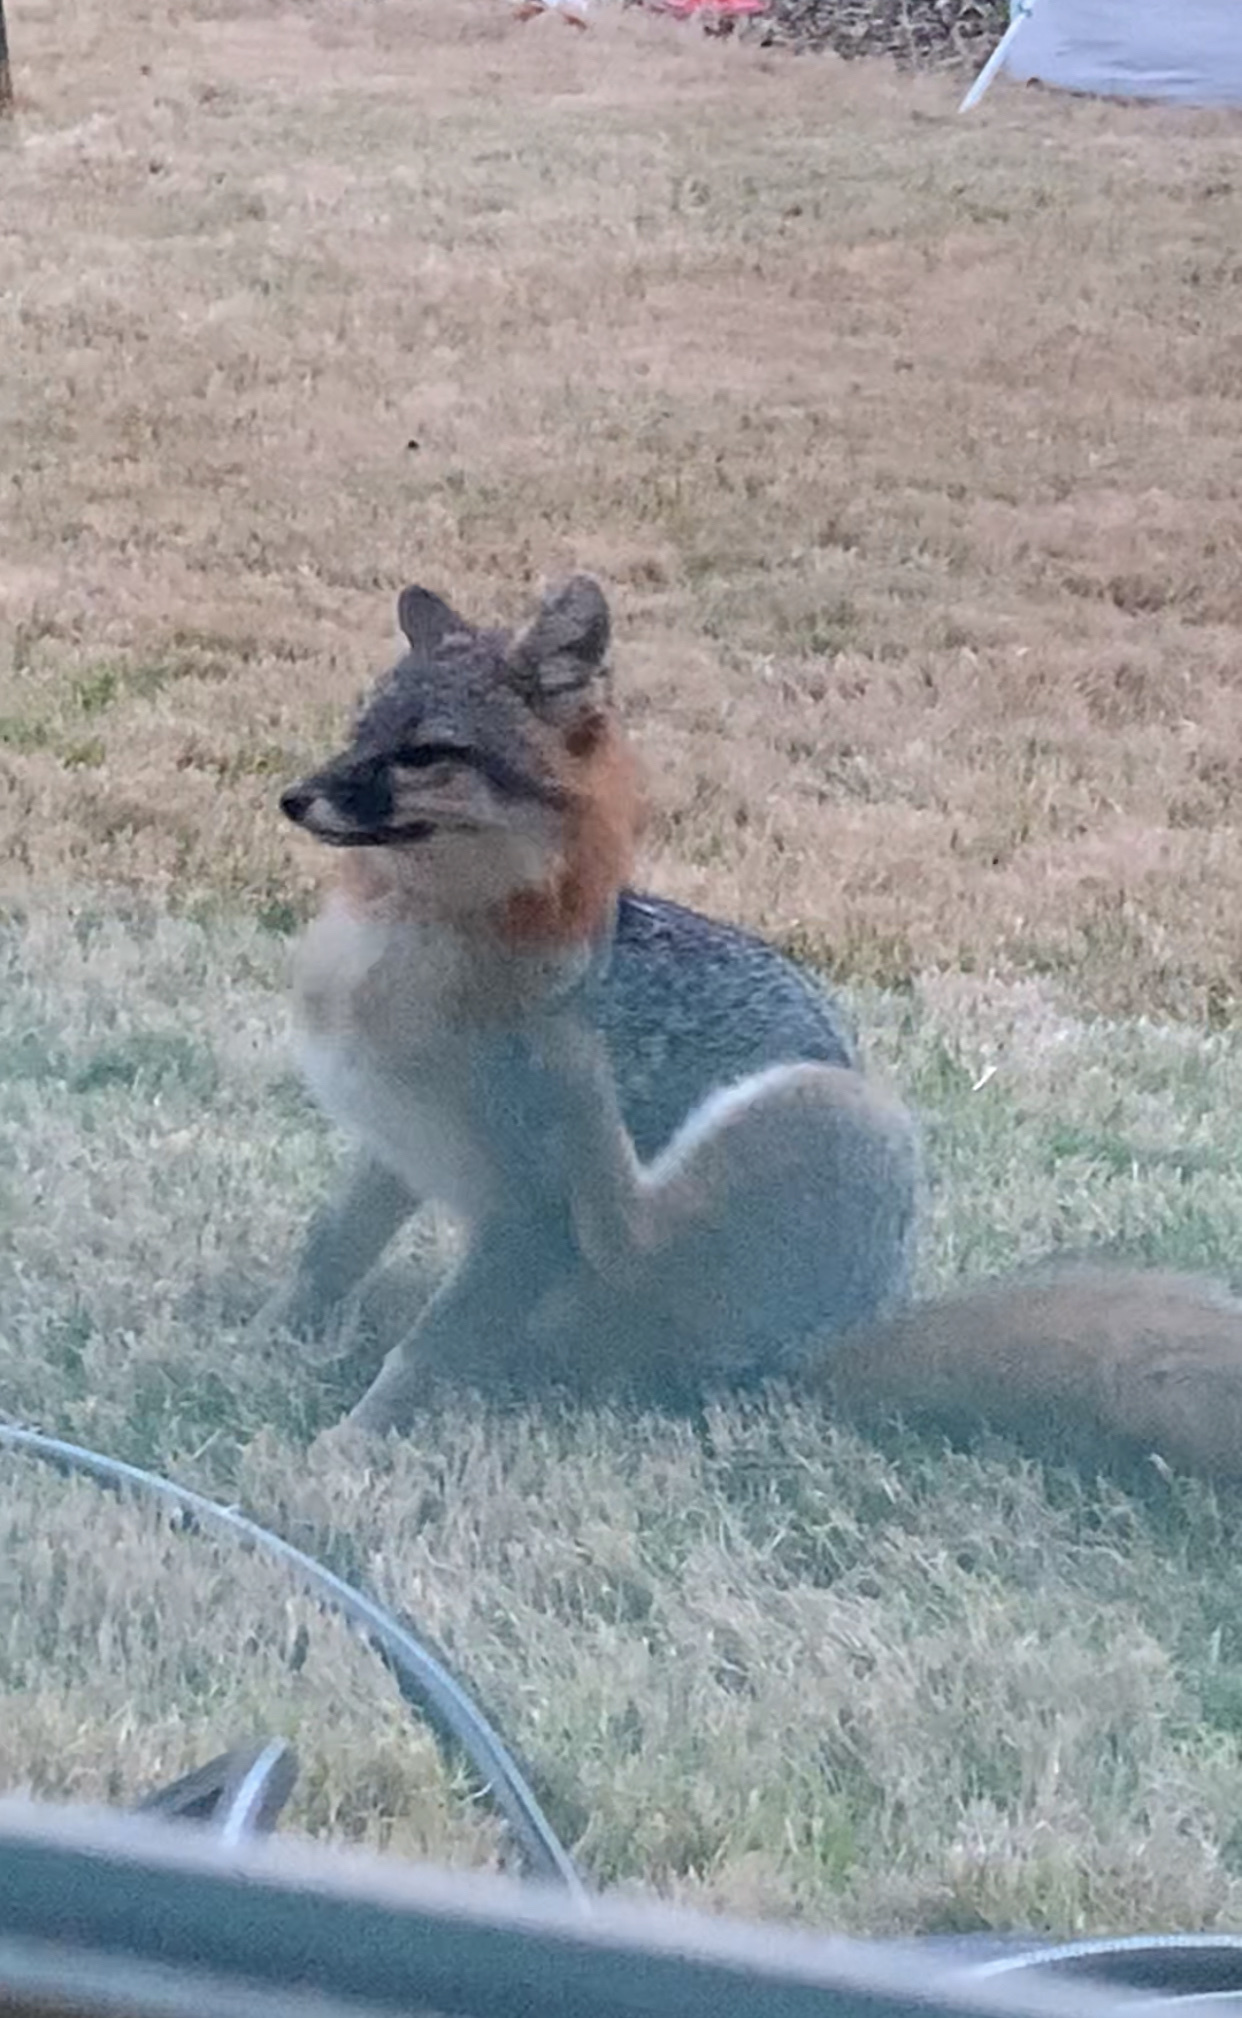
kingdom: Animalia
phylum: Chordata
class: Mammalia
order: Carnivora
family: Canidae
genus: Urocyon
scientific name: Urocyon cinereoargenteus
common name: Gray fox
